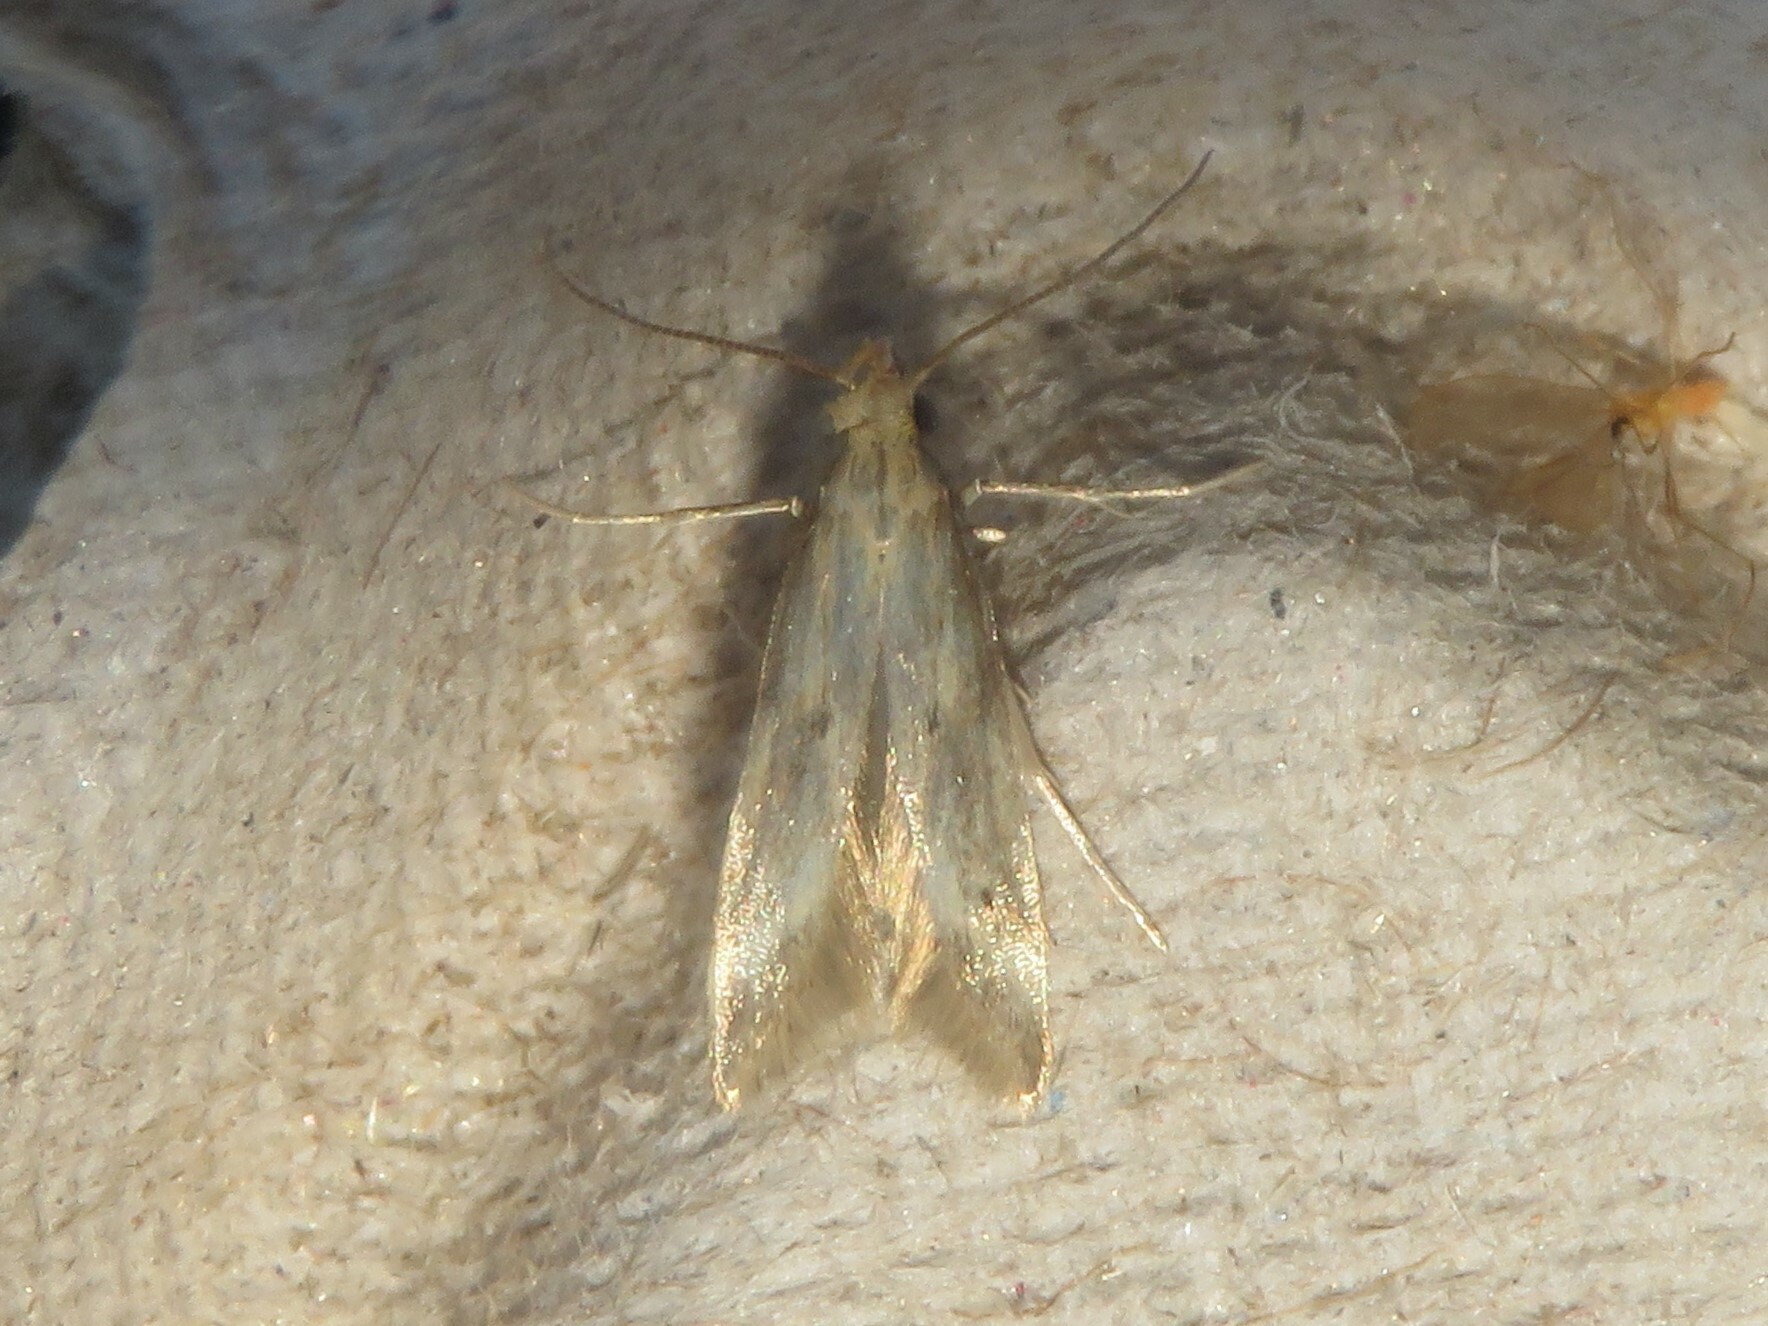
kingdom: Animalia
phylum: Arthropoda
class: Insecta
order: Lepidoptera
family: Gelechiidae
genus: Metzneria
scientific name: Metzneria lappella
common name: Burdock neb
